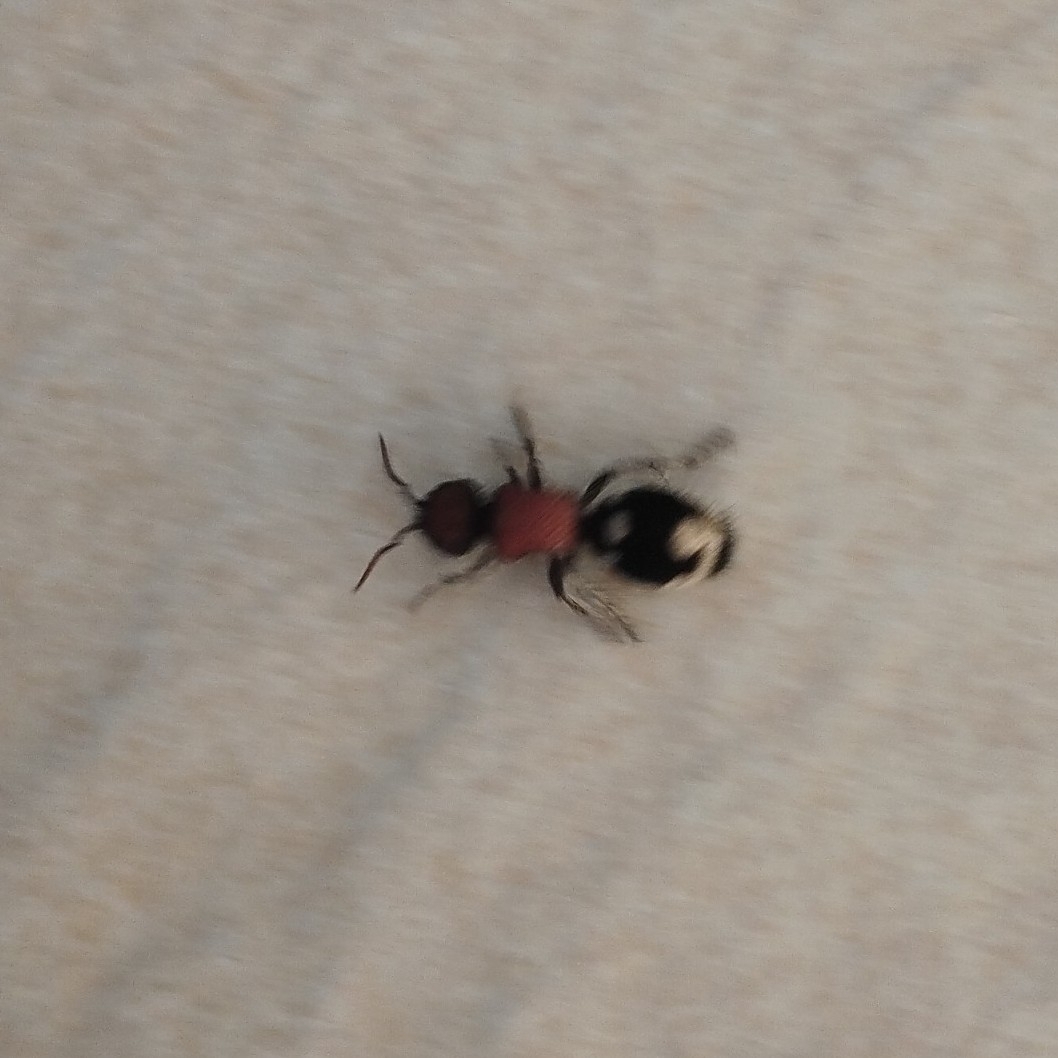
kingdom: Animalia
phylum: Arthropoda
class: Insecta
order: Hymenoptera
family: Mutillidae
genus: Ronisia
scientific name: Ronisia brutia
